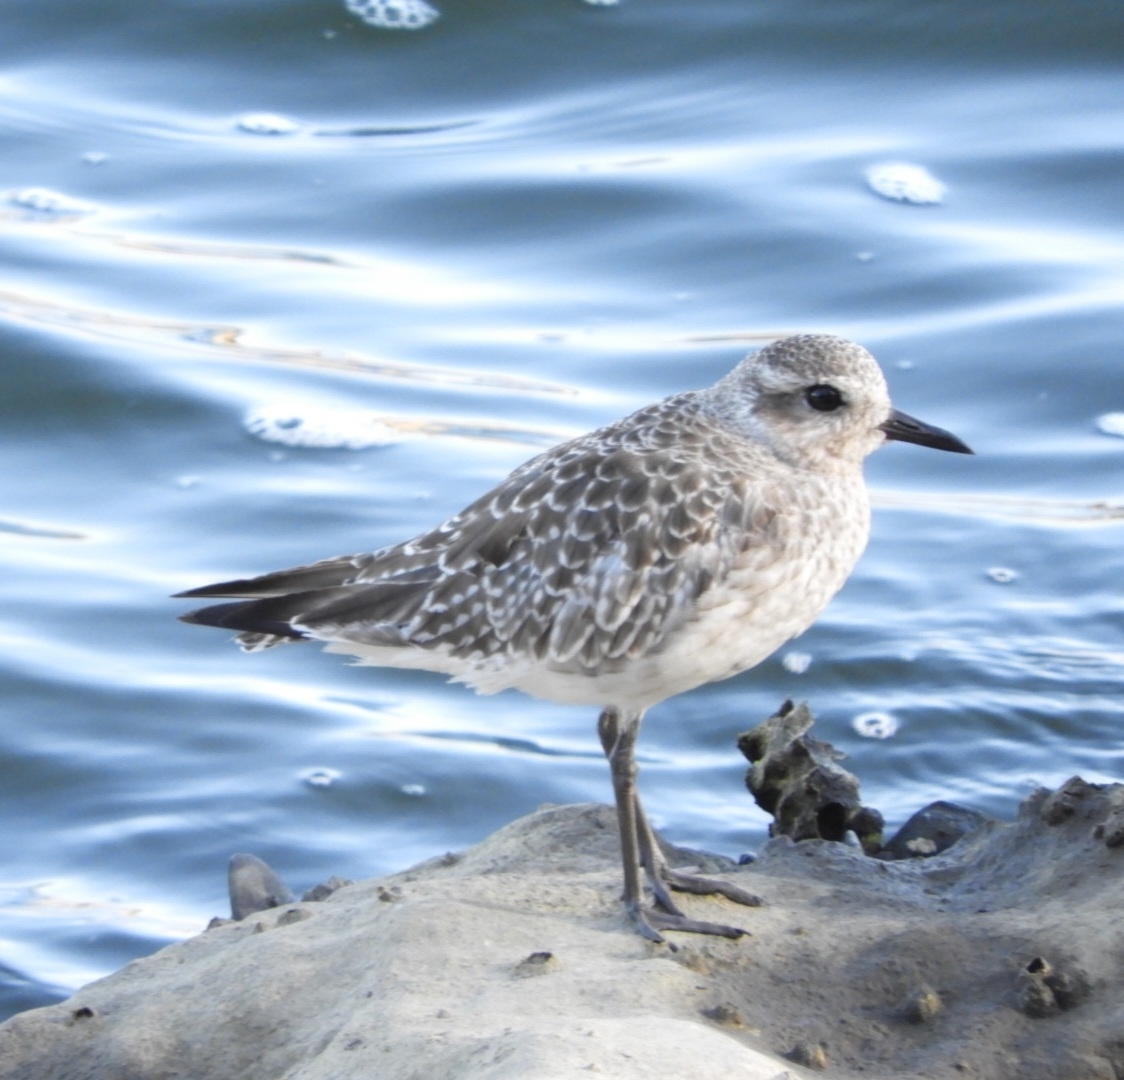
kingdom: Animalia
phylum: Chordata
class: Aves
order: Charadriiformes
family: Charadriidae
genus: Pluvialis
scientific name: Pluvialis squatarola
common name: Grey plover
